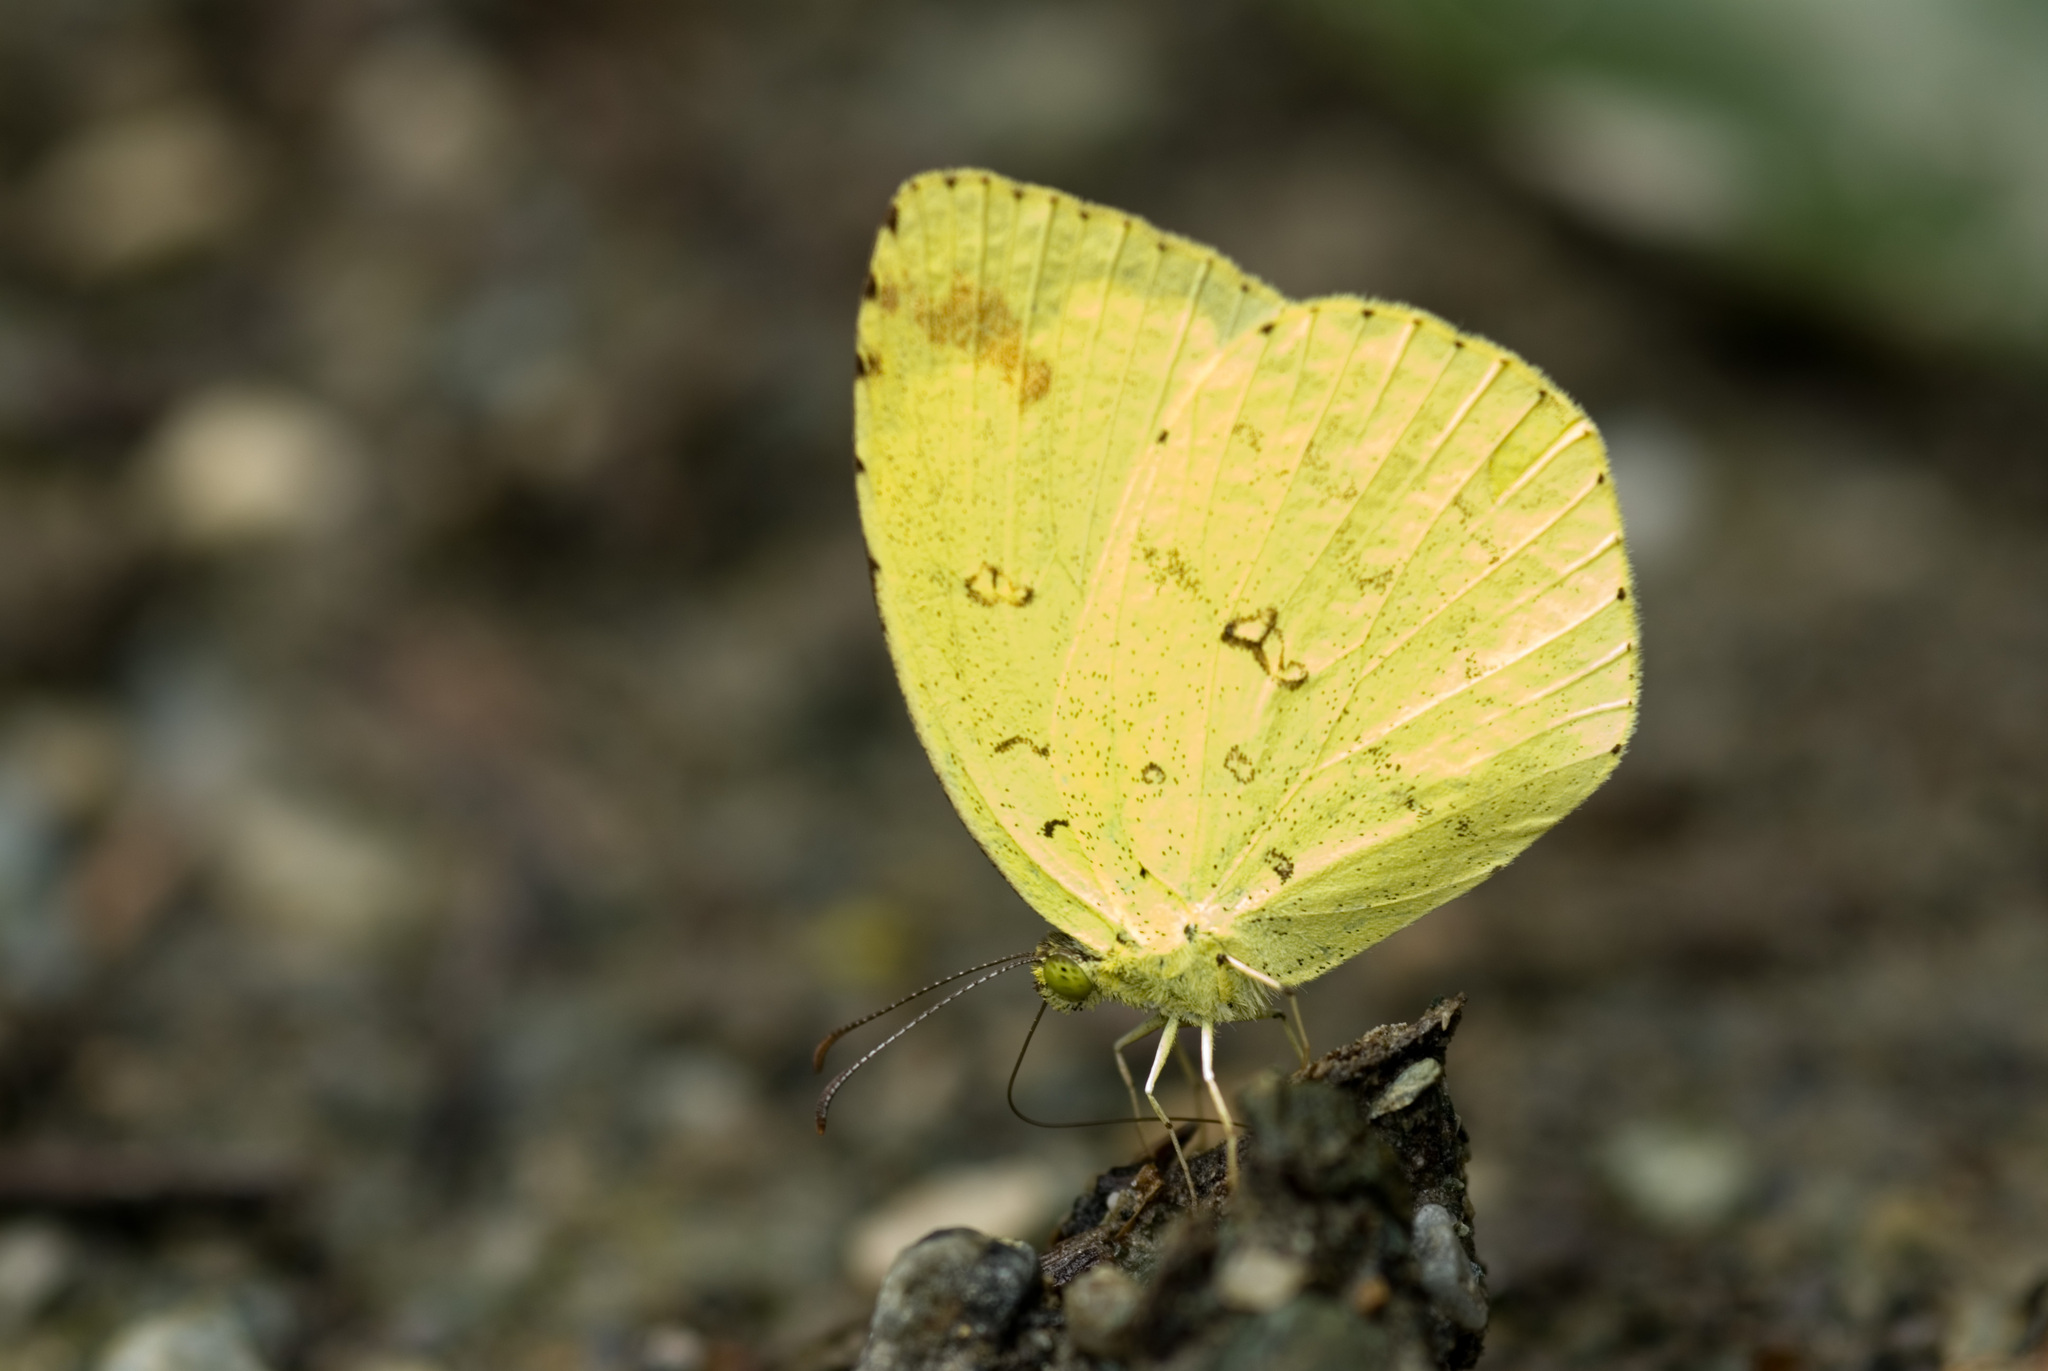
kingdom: Animalia
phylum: Arthropoda
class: Insecta
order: Lepidoptera
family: Pieridae
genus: Eurema
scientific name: Eurema mandarina
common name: Japanese common grass yellow
